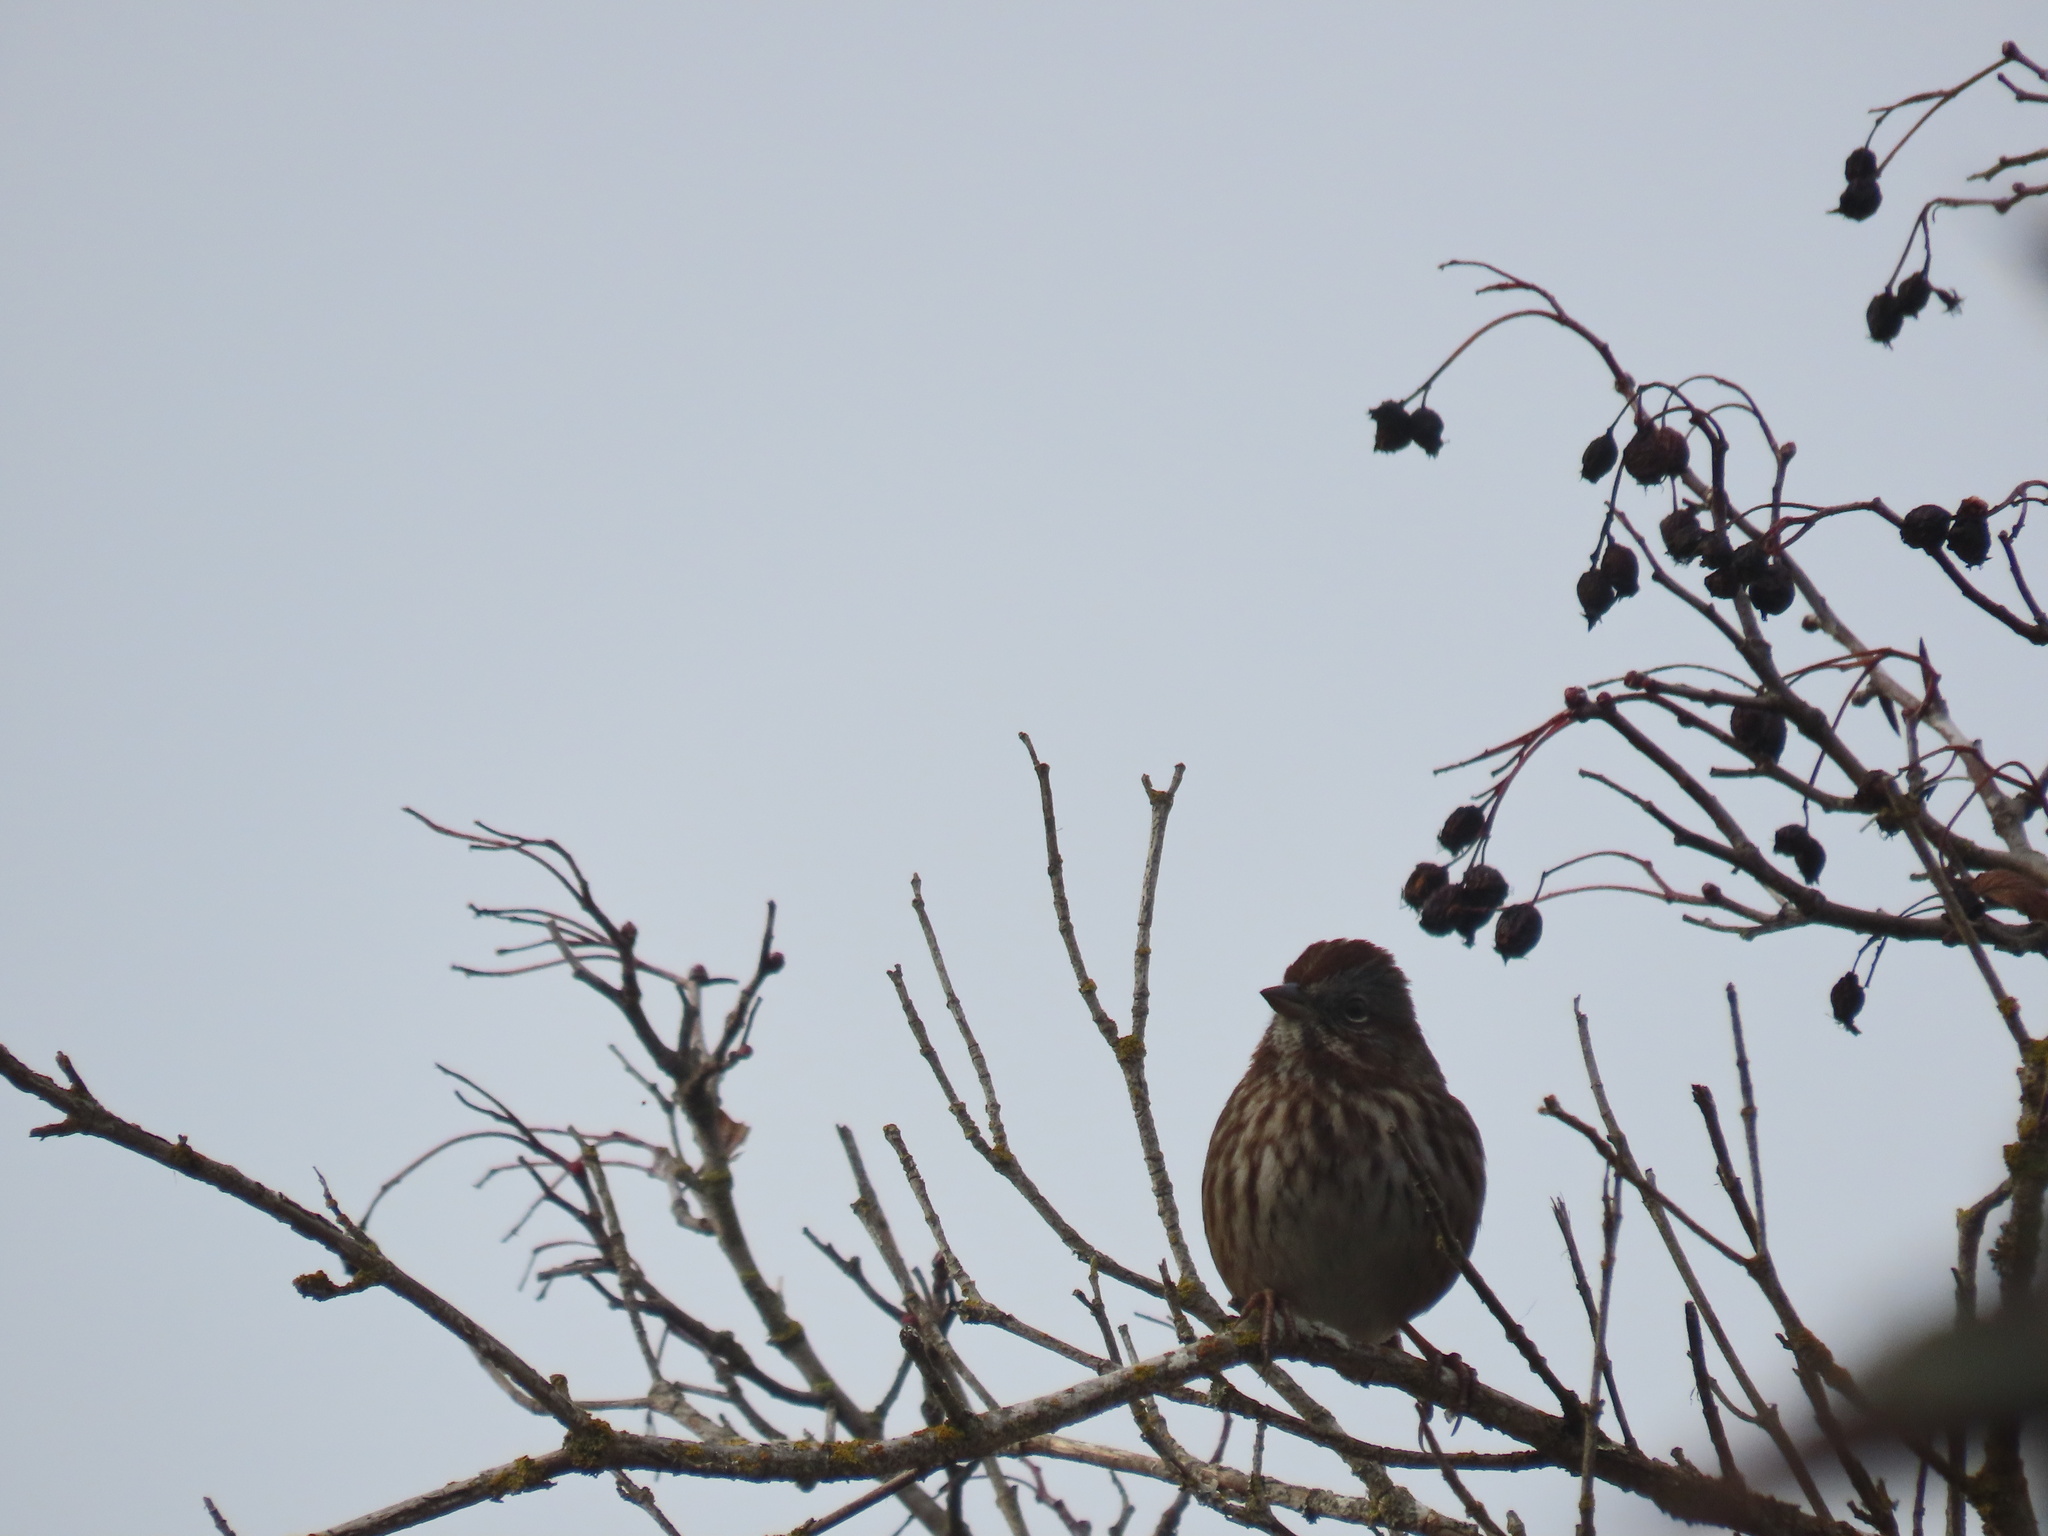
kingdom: Animalia
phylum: Chordata
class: Aves
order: Passeriformes
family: Passerellidae
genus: Melospiza
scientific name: Melospiza melodia
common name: Song sparrow
